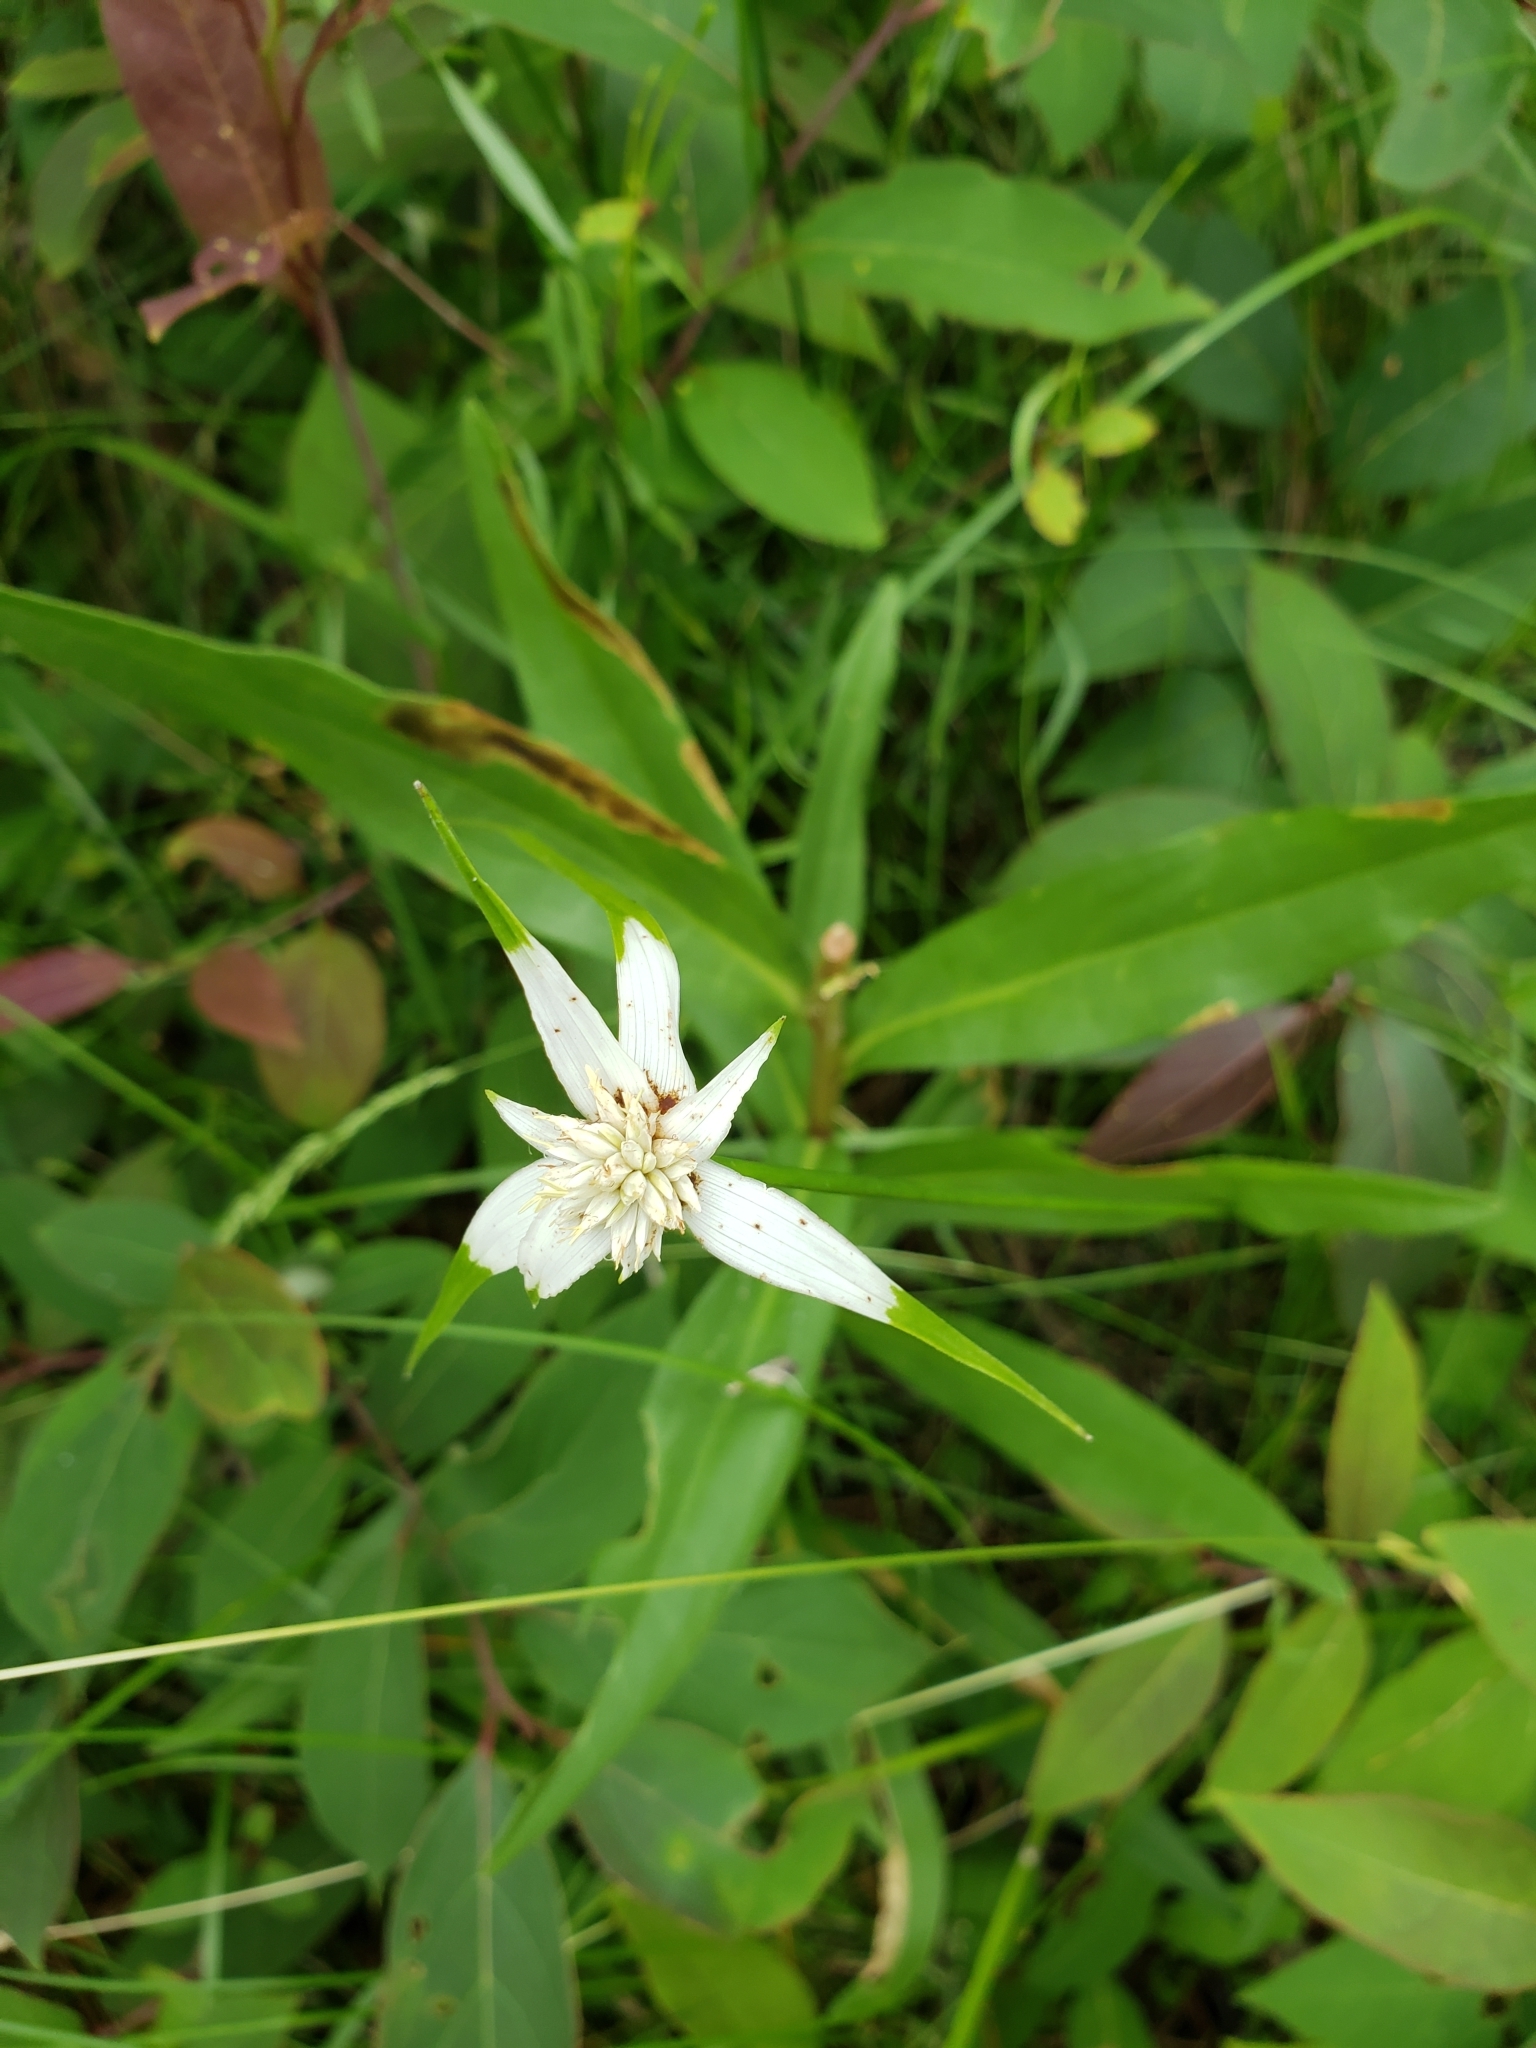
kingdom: Plantae
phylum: Tracheophyta
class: Liliopsida
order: Poales
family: Cyperaceae
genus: Rhynchospora
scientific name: Rhynchospora colorata
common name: Star sedge
